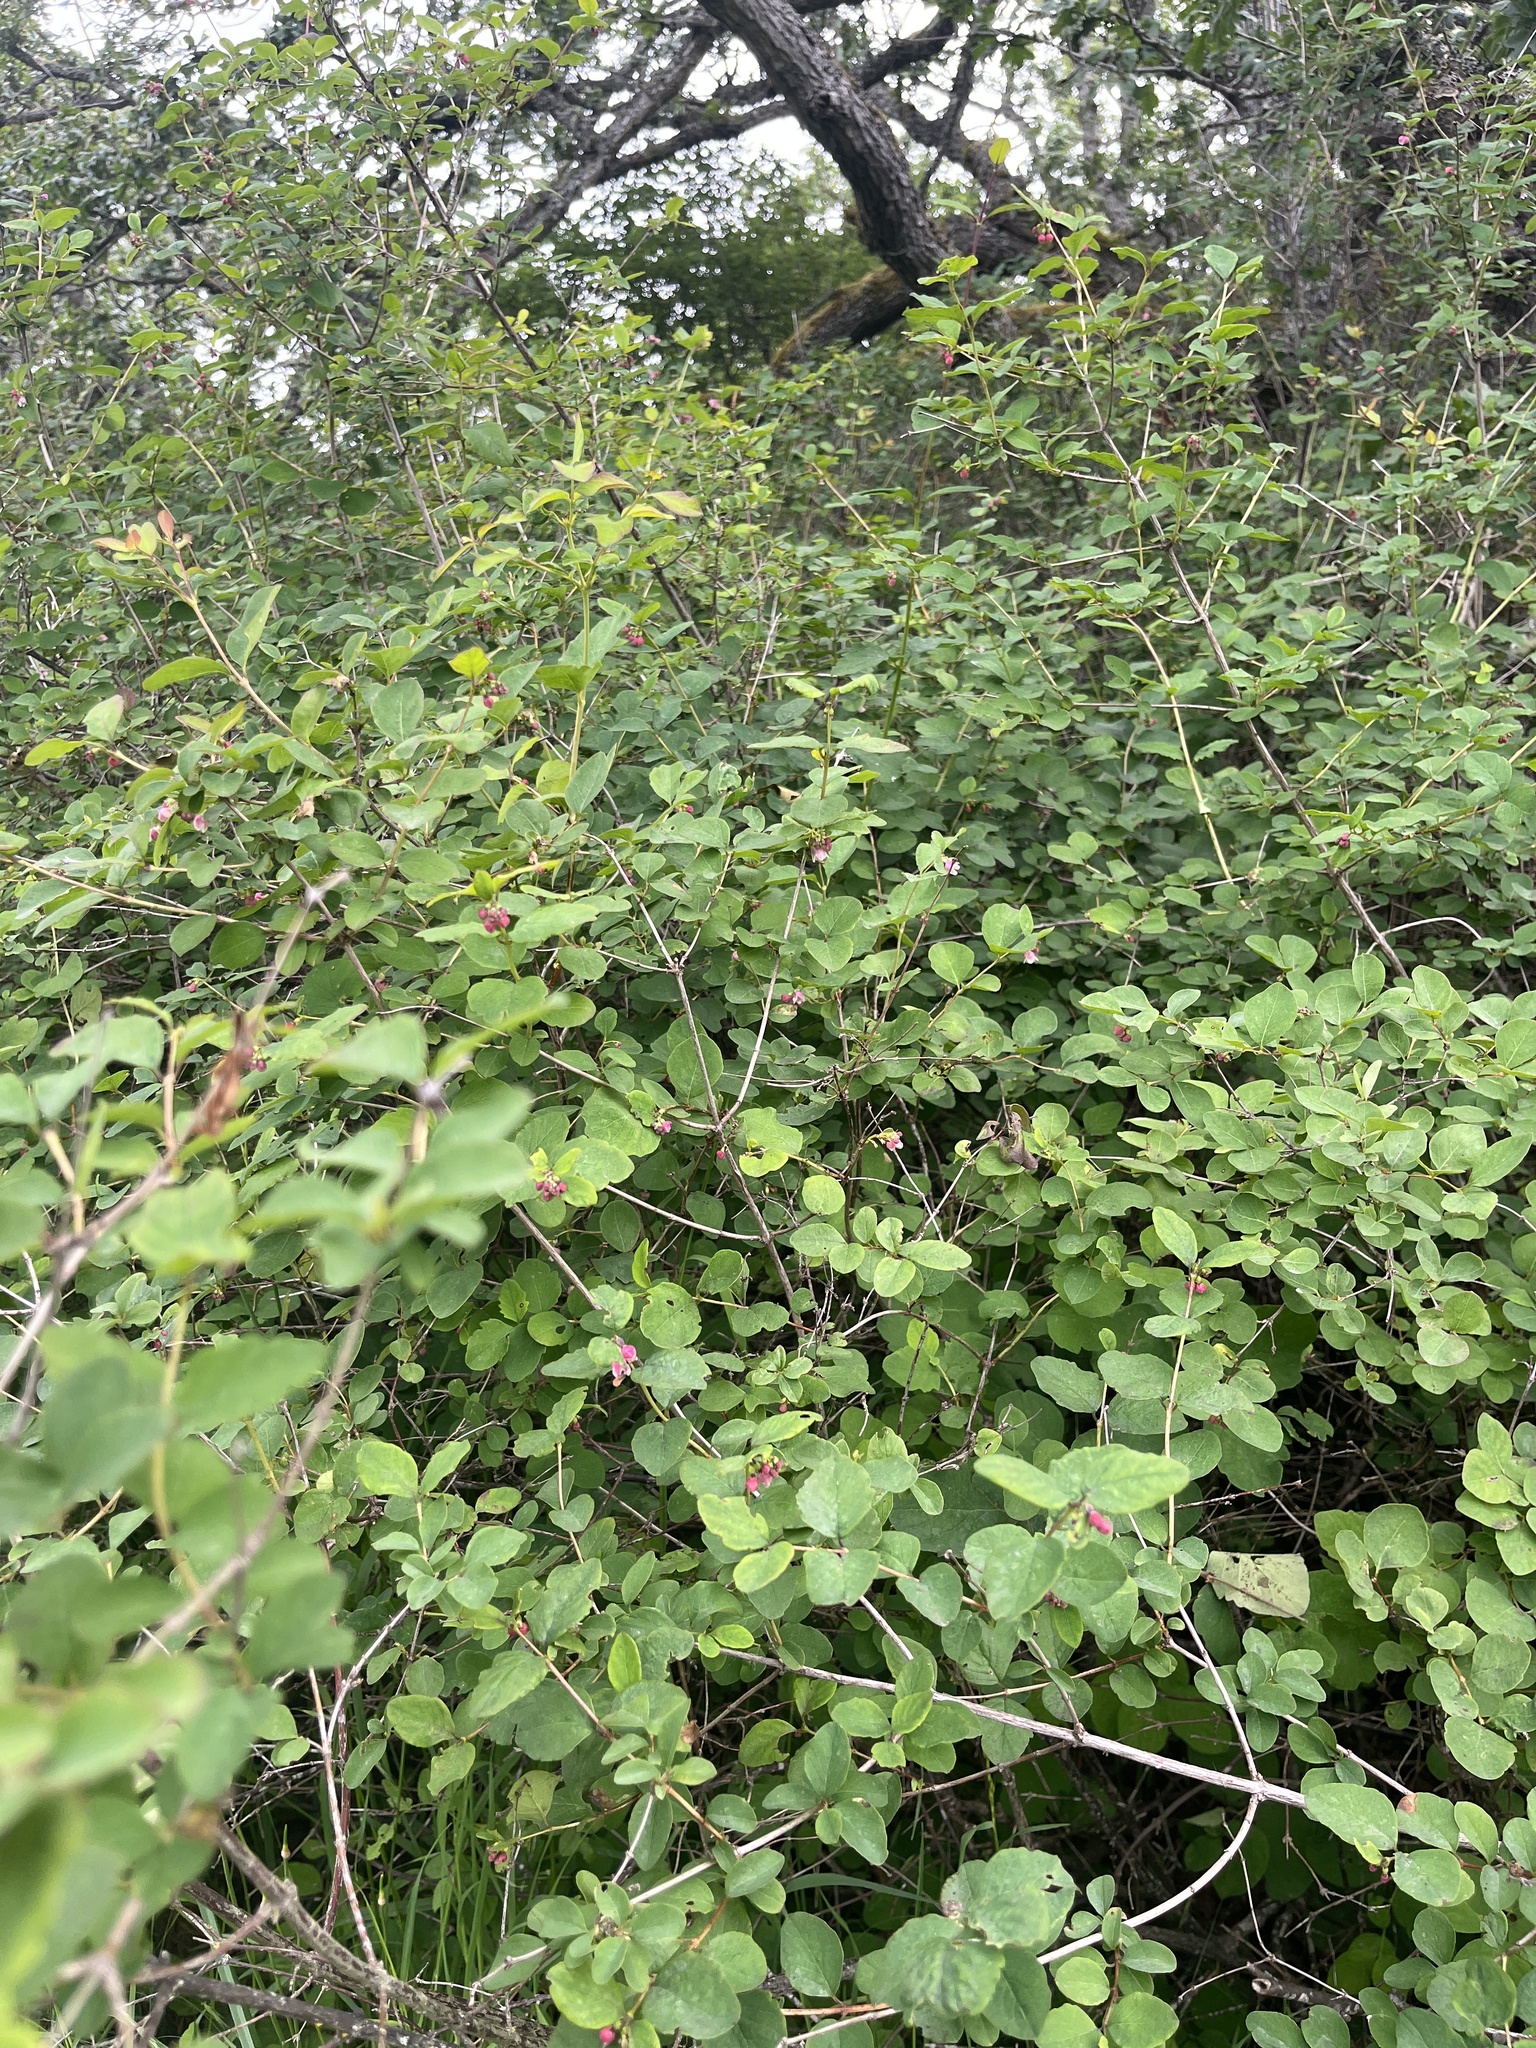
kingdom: Plantae
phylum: Tracheophyta
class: Magnoliopsida
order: Dipsacales
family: Caprifoliaceae
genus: Symphoricarpos
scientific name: Symphoricarpos albus
